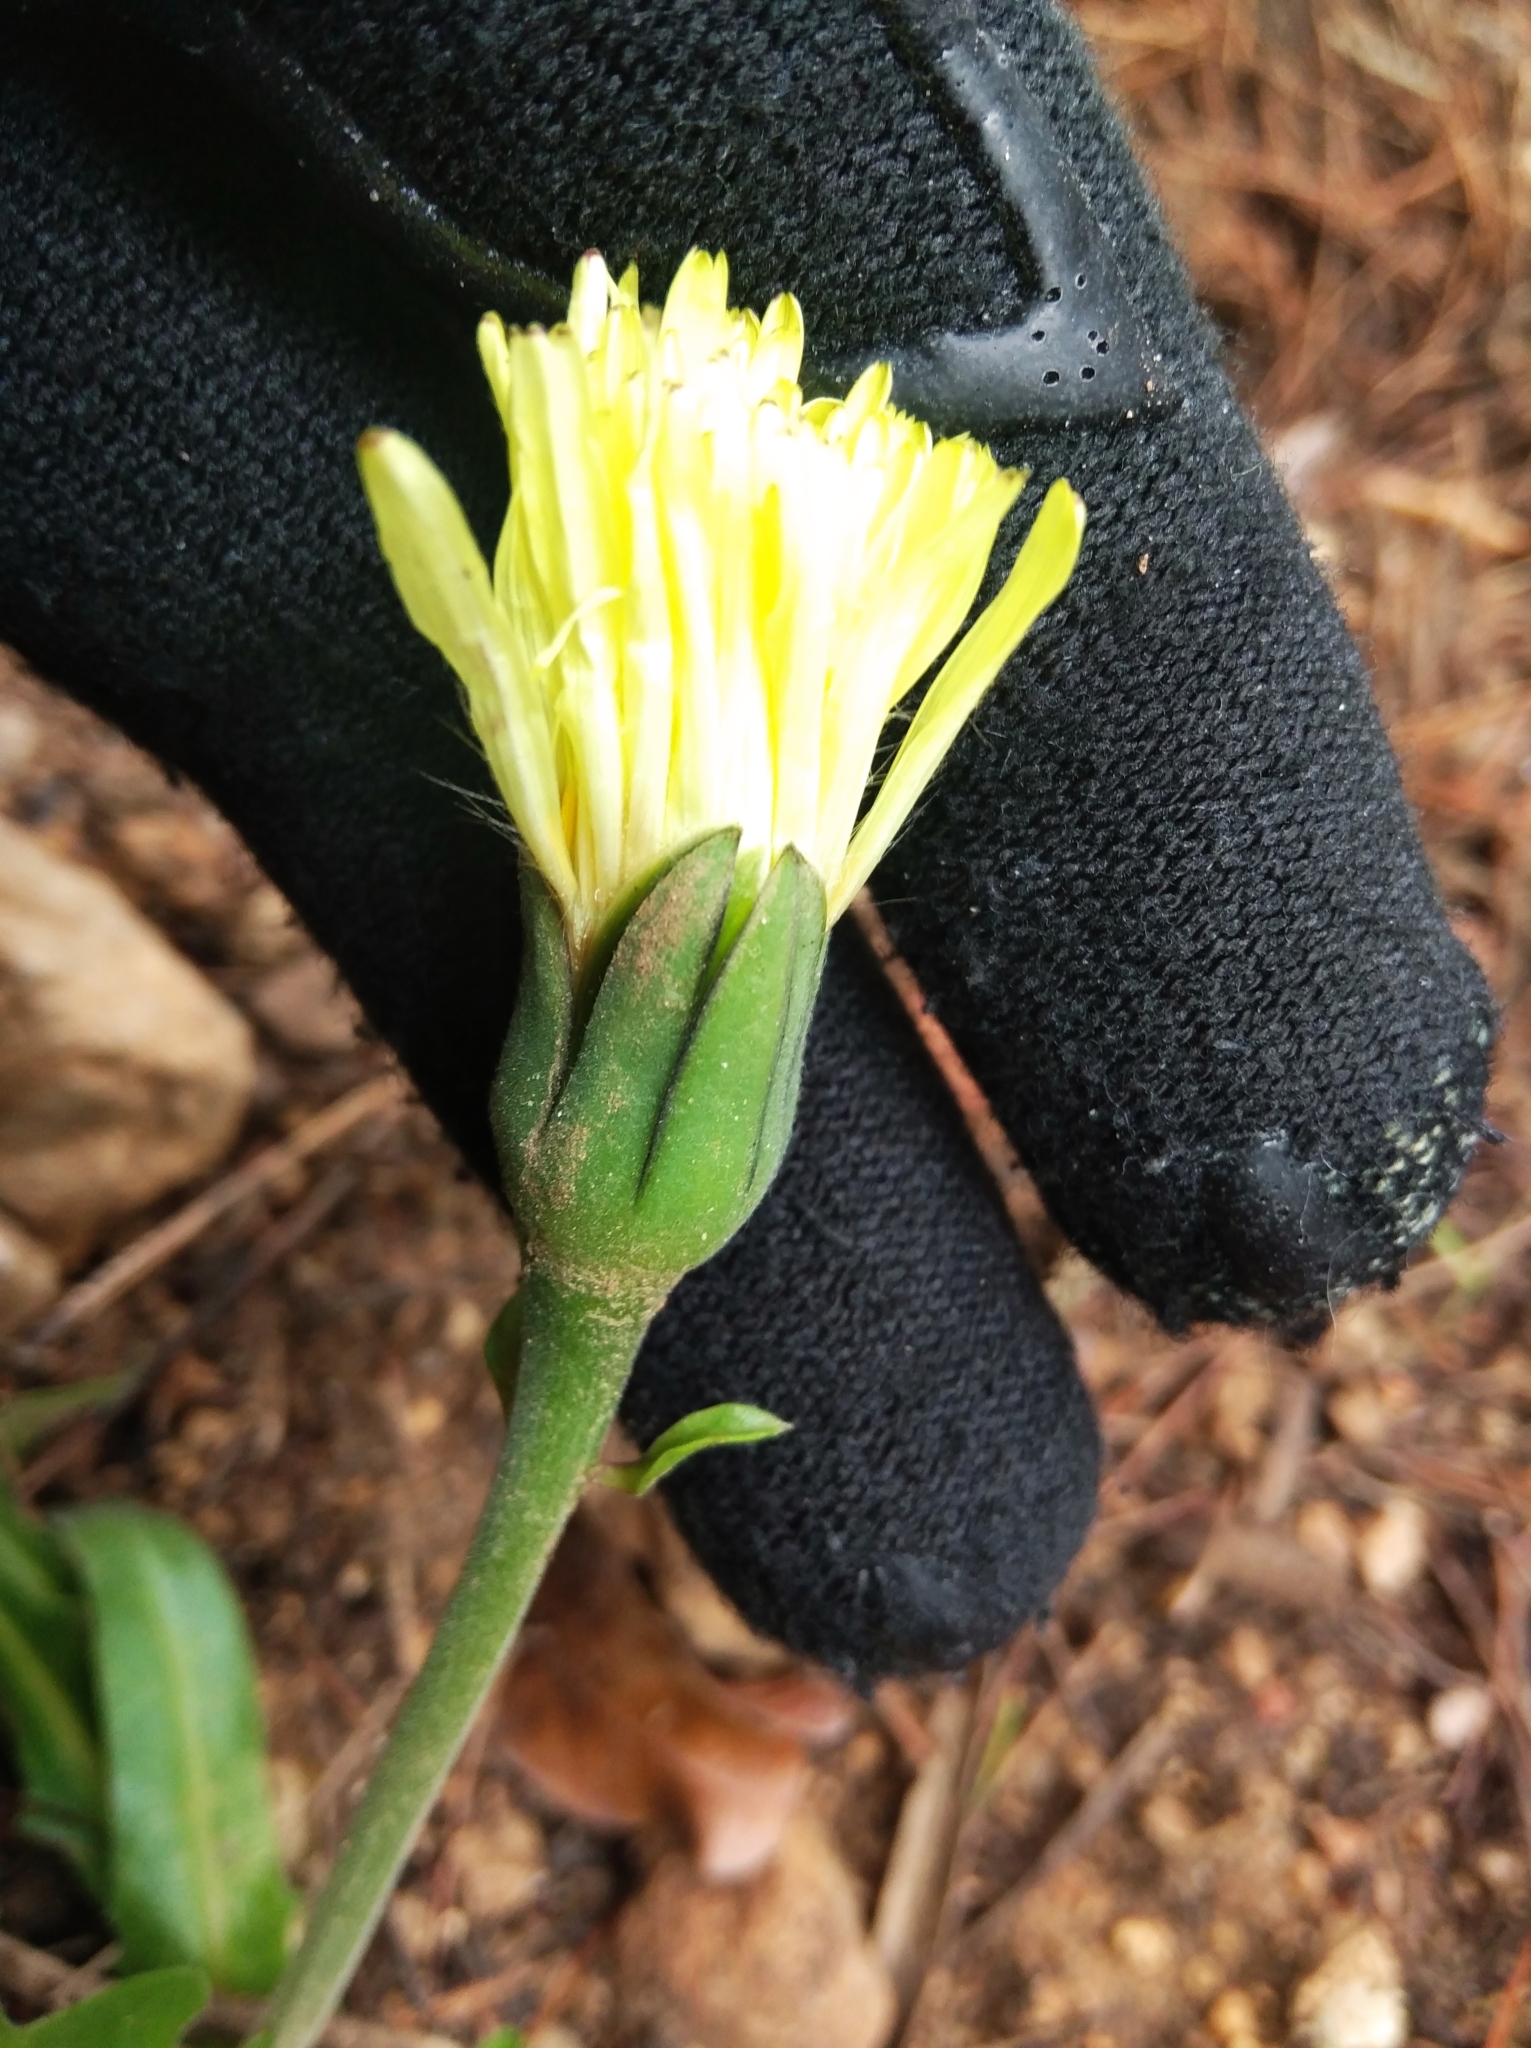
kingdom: Plantae
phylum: Tracheophyta
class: Magnoliopsida
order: Asterales
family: Asteraceae
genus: Urospermum
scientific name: Urospermum dalechampii
